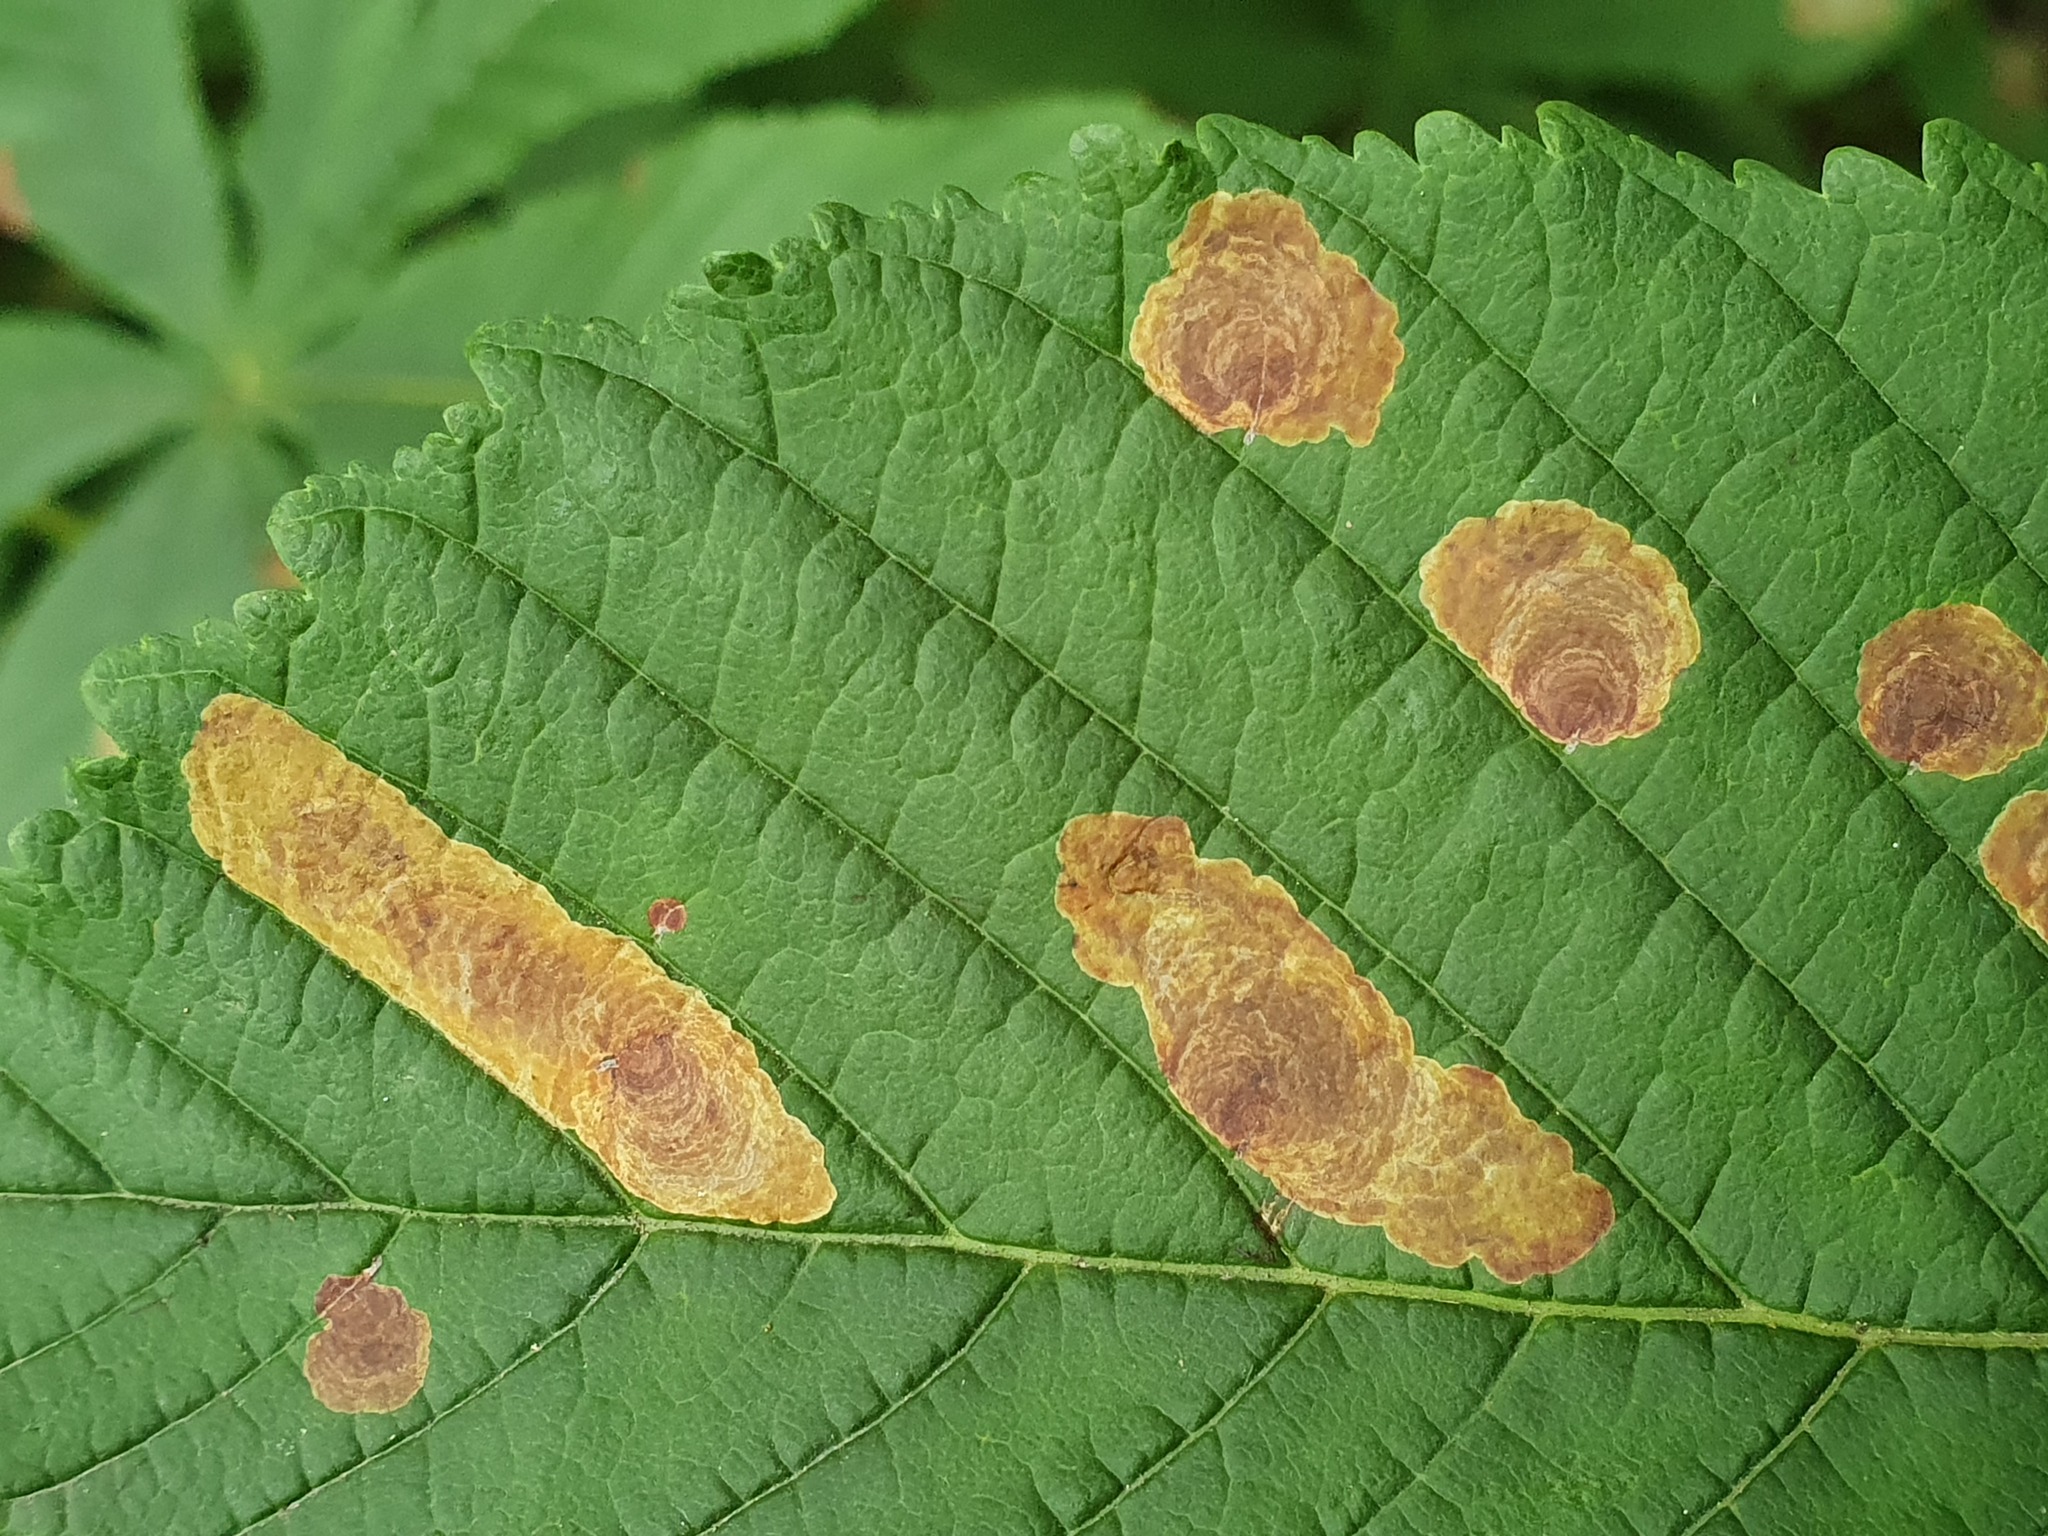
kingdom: Animalia
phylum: Arthropoda
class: Insecta
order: Lepidoptera
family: Gracillariidae
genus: Cameraria
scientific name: Cameraria ohridella
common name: Horse-chestnut leaf-miner
